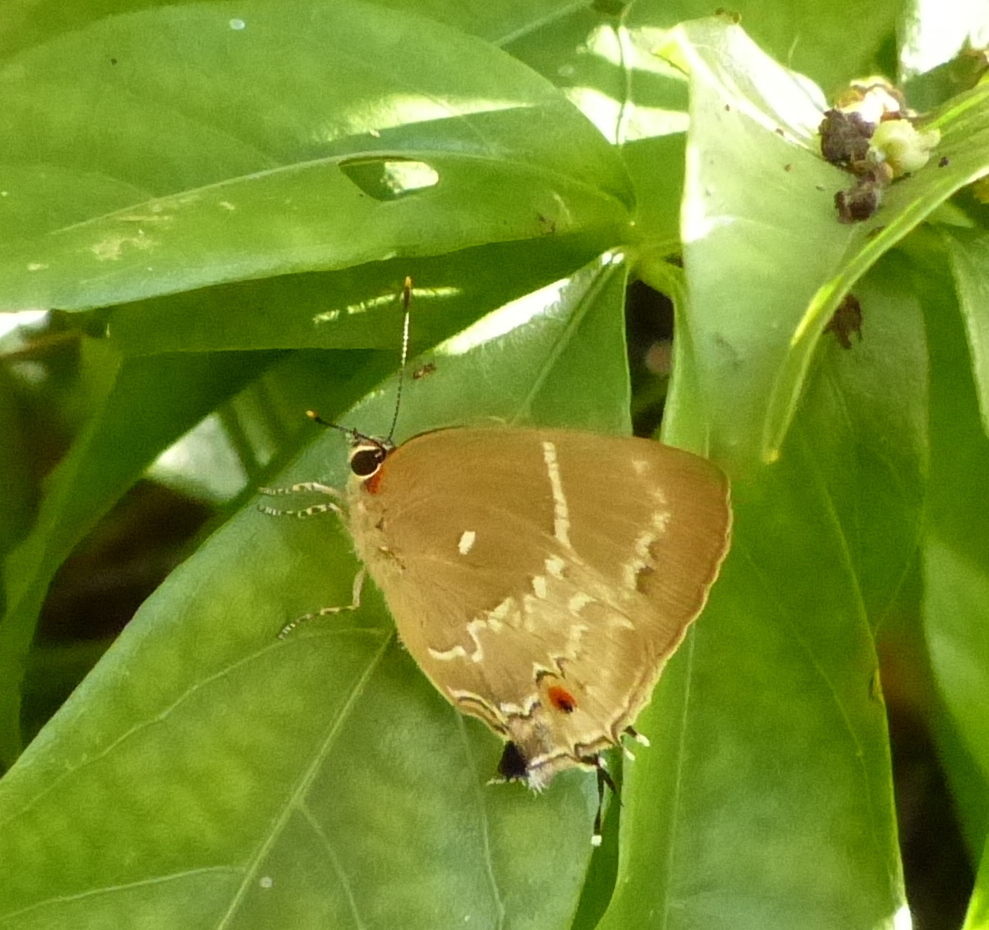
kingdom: Animalia
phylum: Arthropoda
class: Insecta
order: Lepidoptera
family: Lycaenidae
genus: Thecla
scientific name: Thecla phoenissa
